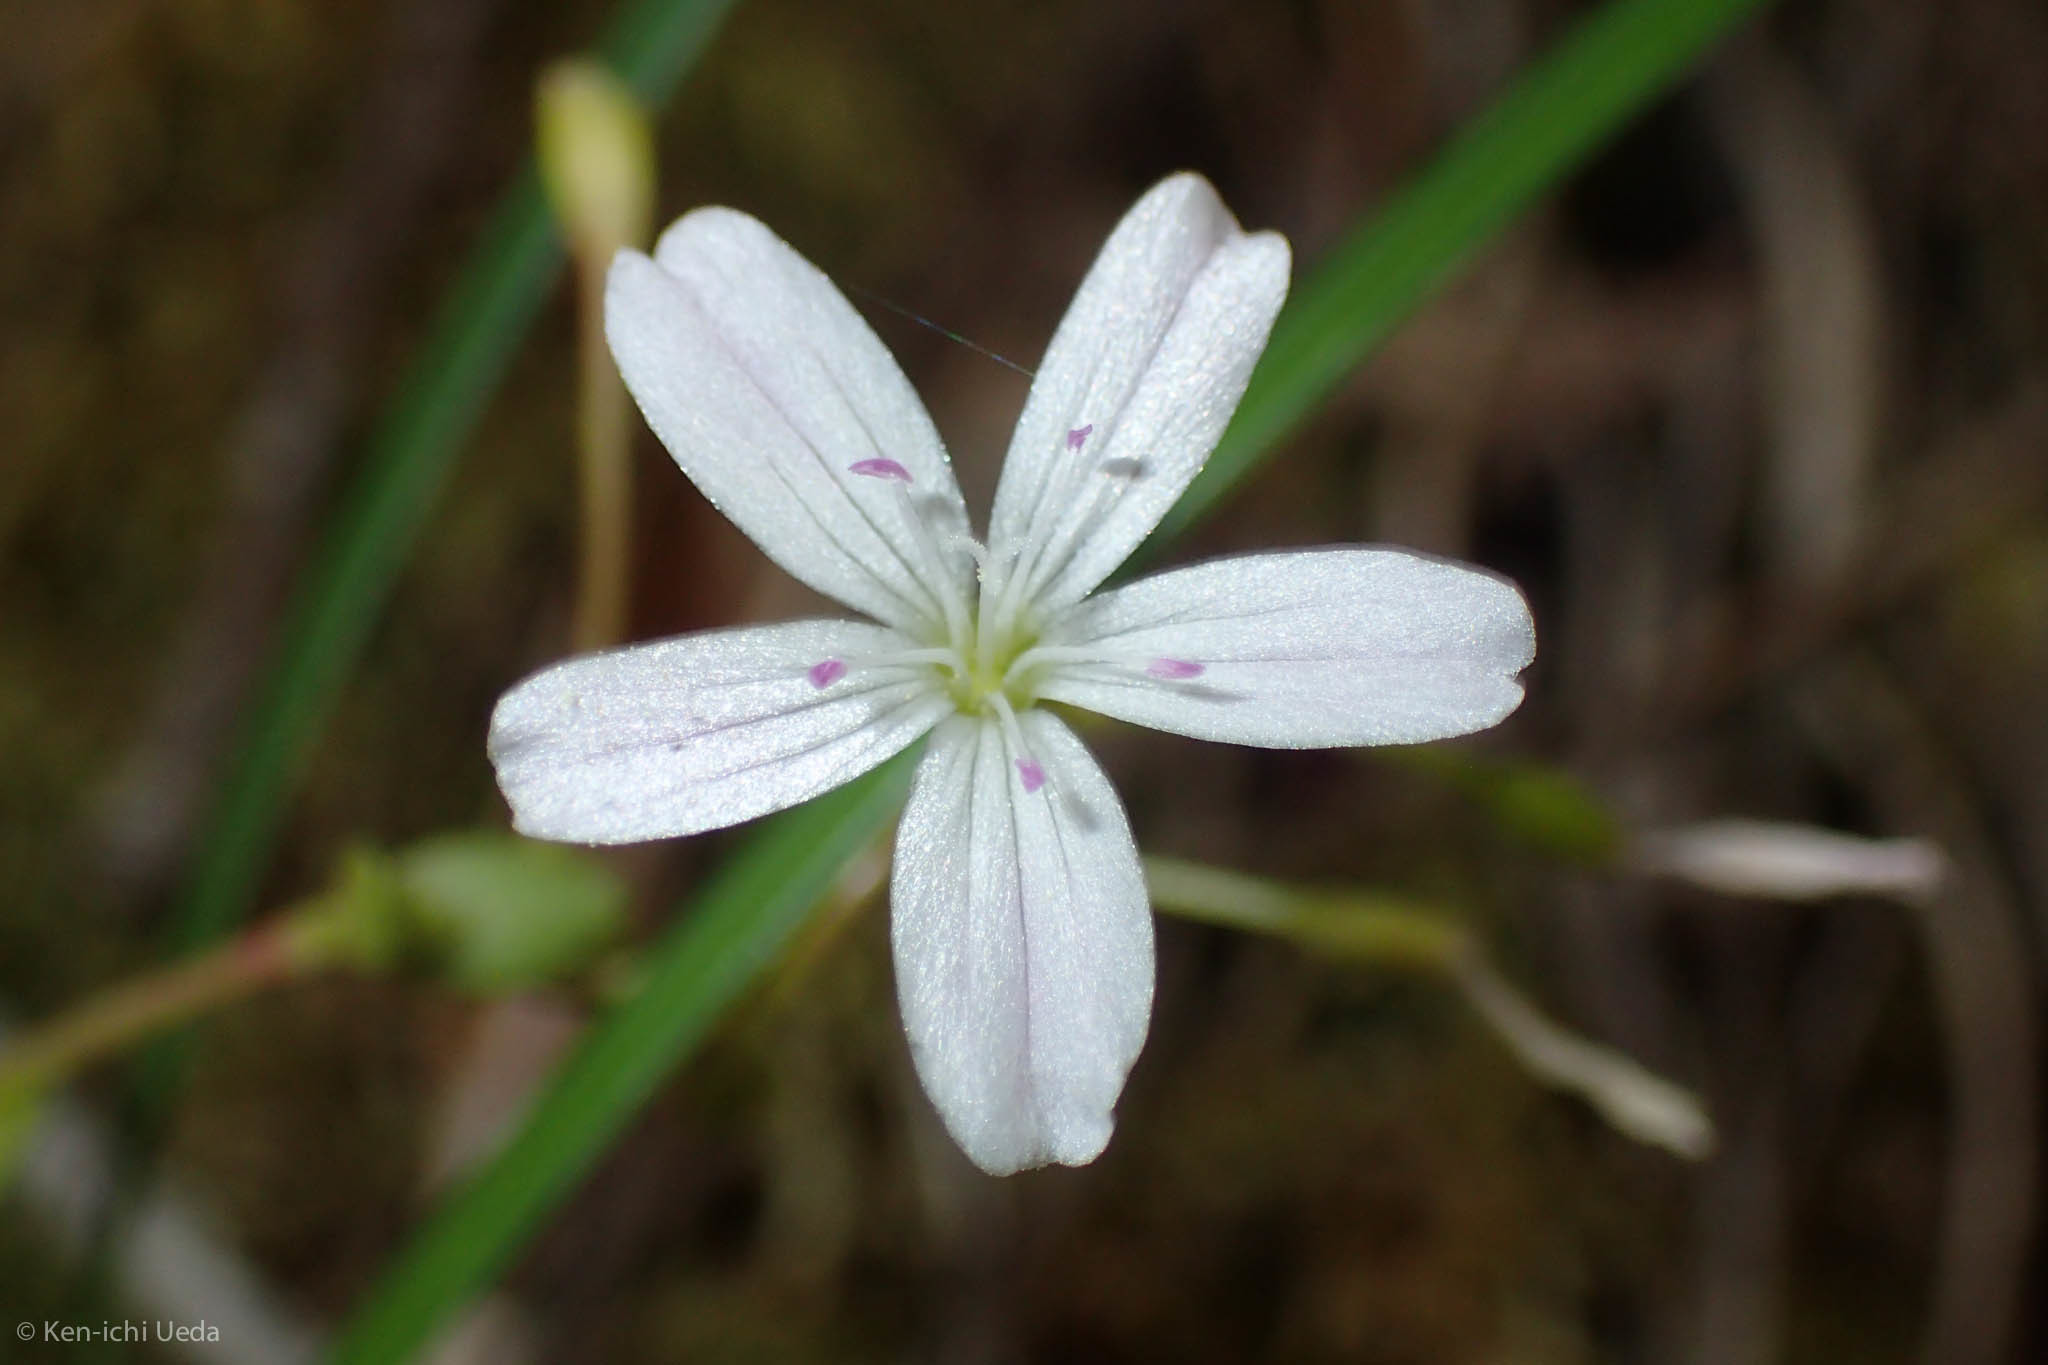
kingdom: Plantae
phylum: Tracheophyta
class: Magnoliopsida
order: Caryophyllales
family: Montiaceae
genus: Montia
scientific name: Montia parvifolia
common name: Small-leaved blinks
